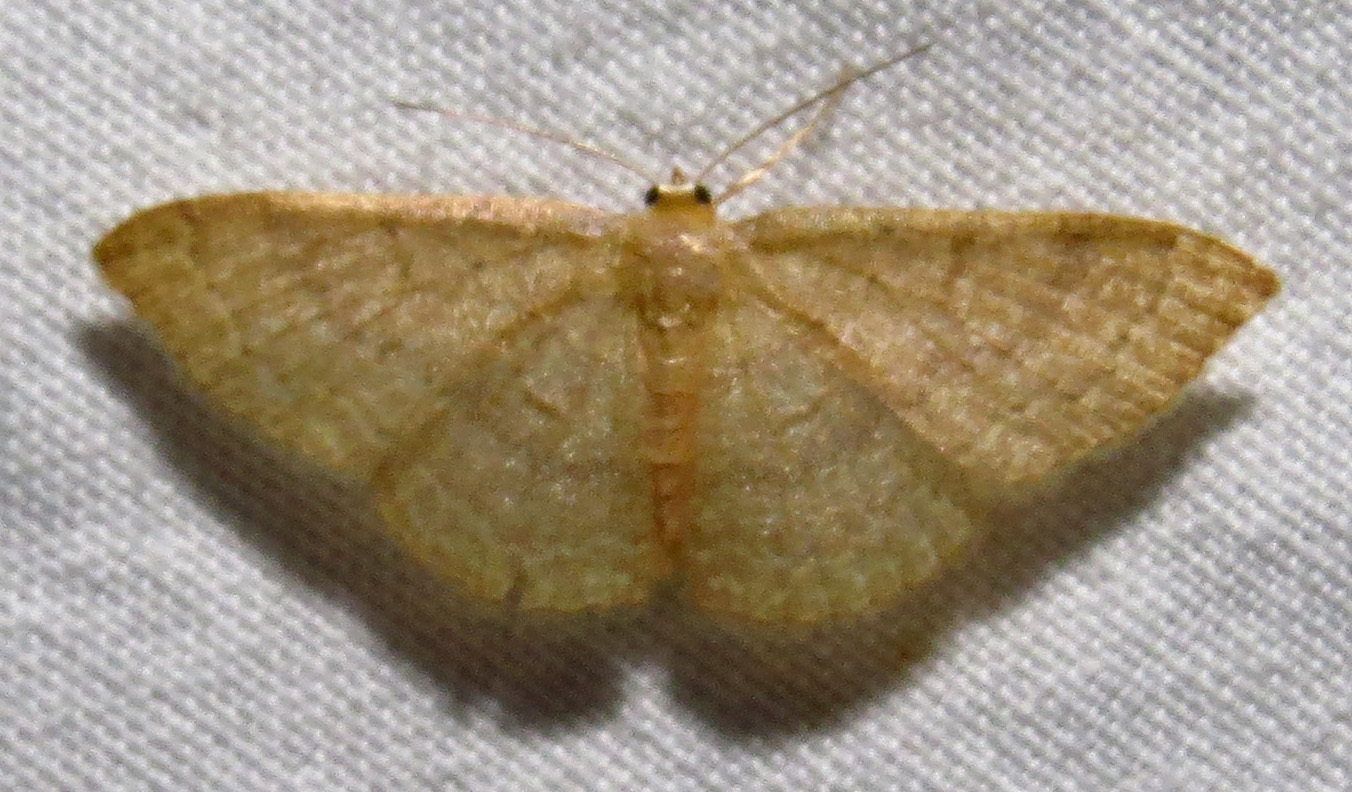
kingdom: Animalia
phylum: Arthropoda
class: Insecta
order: Lepidoptera
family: Geometridae
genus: Pleuroprucha
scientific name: Pleuroprucha insulsaria
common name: Common tan wave
